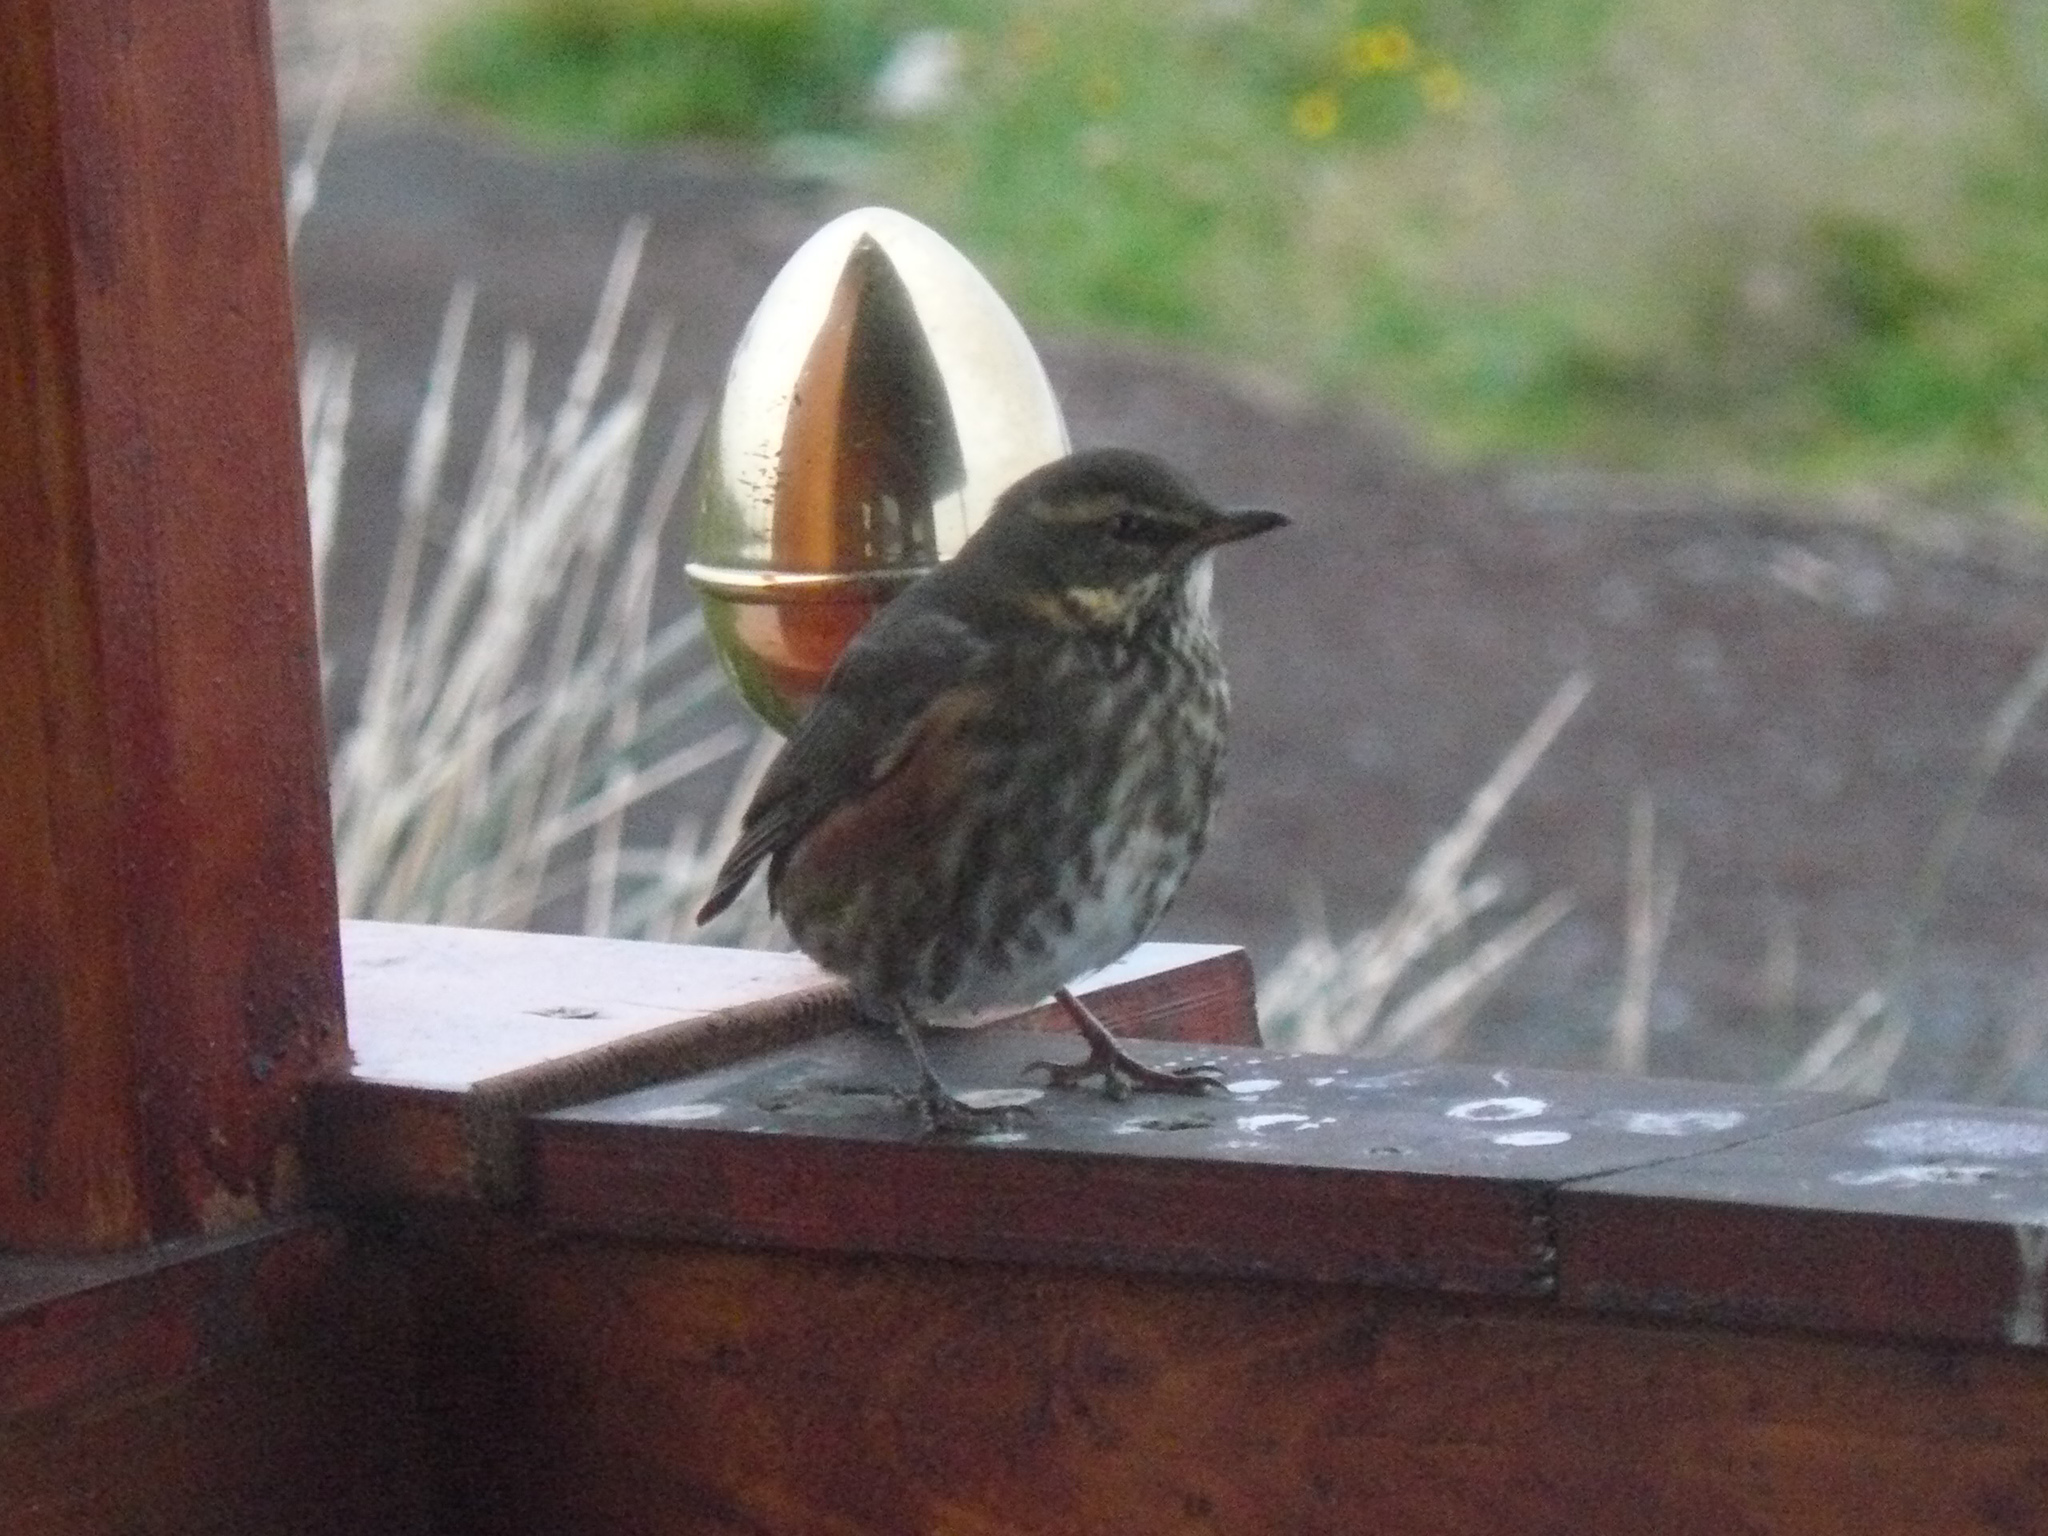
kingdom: Animalia
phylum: Chordata
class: Aves
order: Passeriformes
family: Turdidae
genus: Turdus
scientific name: Turdus iliacus
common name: Redwing
